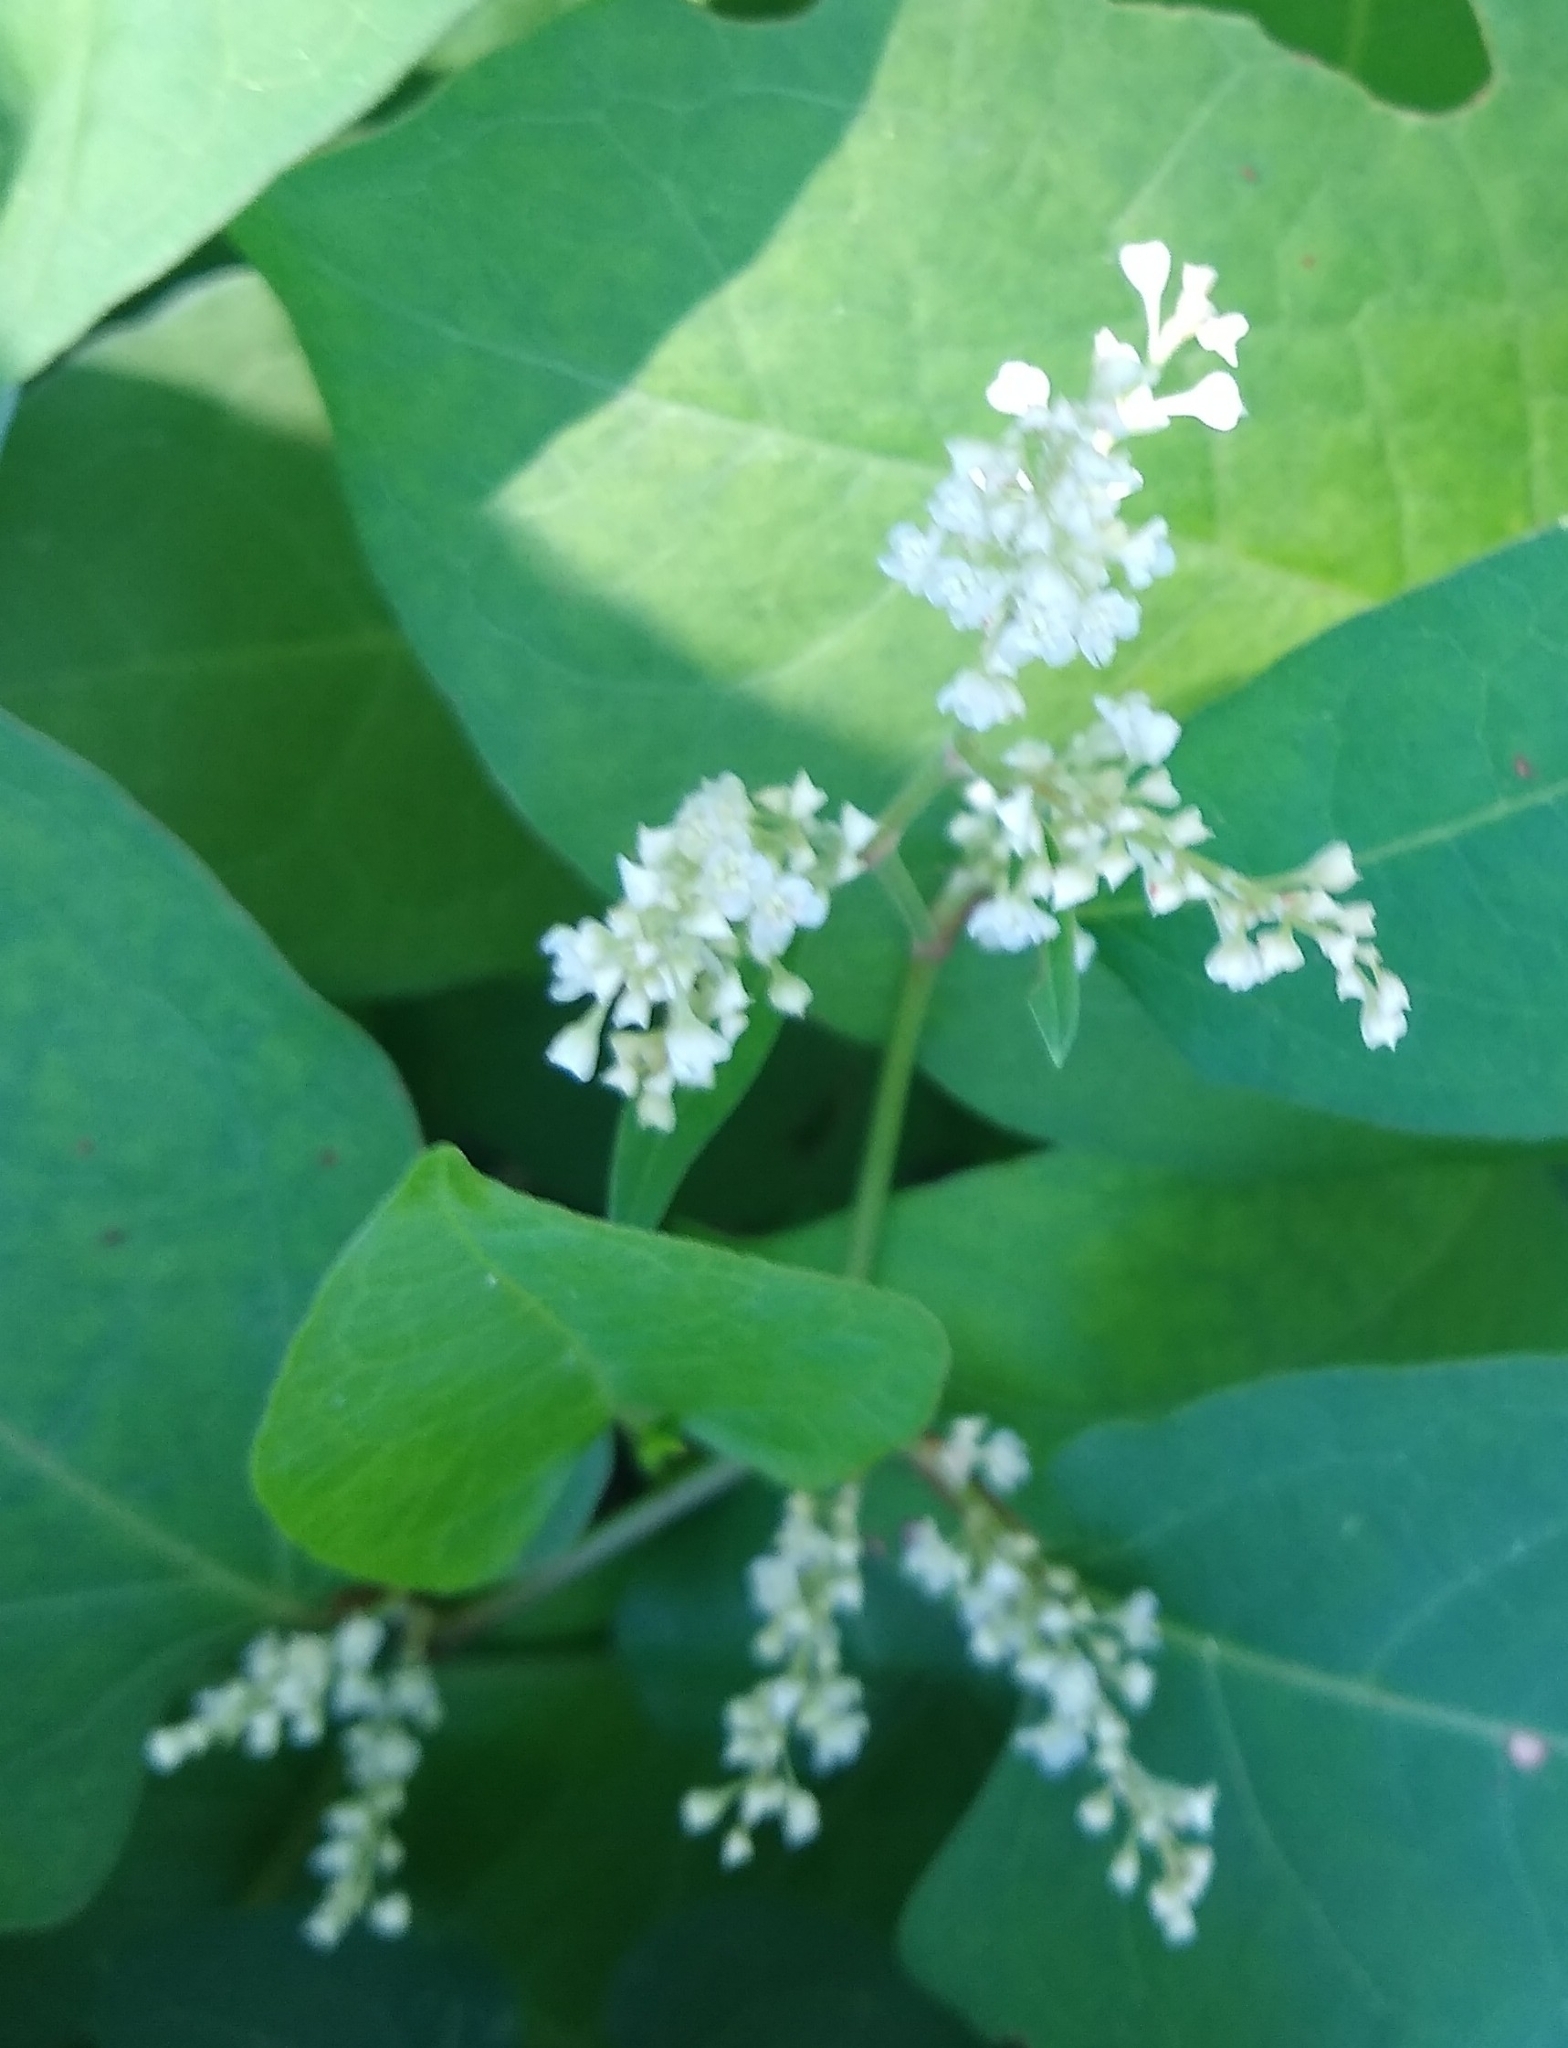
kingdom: Plantae
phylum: Tracheophyta
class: Magnoliopsida
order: Caryophyllales
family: Polygonaceae
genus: Reynoutria
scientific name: Reynoutria japonica
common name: Japanese knotweed
